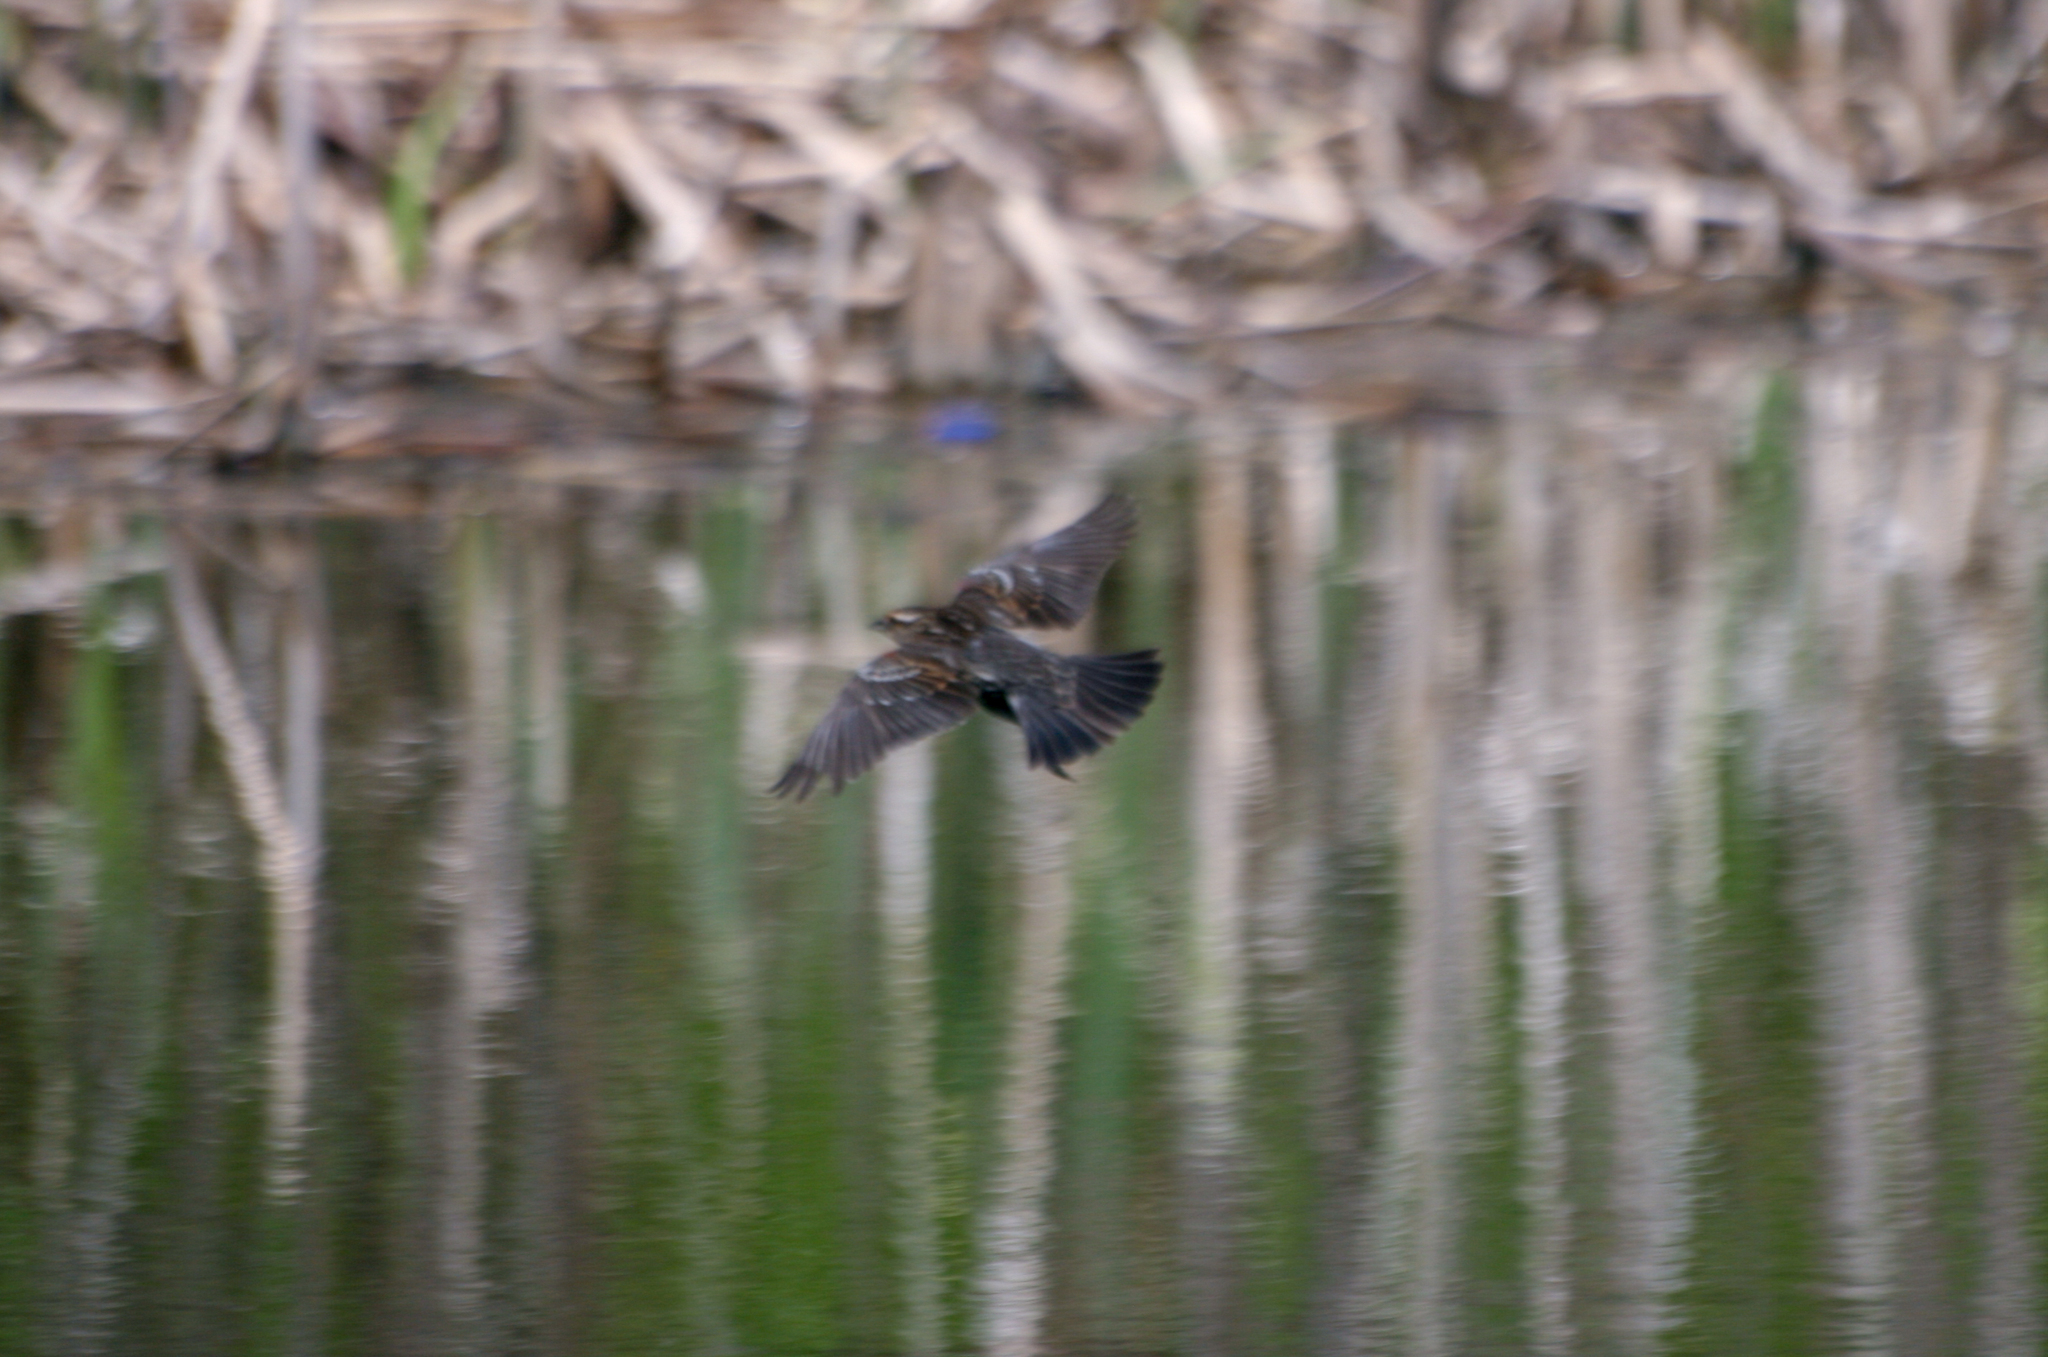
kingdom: Animalia
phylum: Chordata
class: Aves
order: Passeriformes
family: Icteridae
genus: Agelaius
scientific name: Agelaius phoeniceus
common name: Red-winged blackbird
